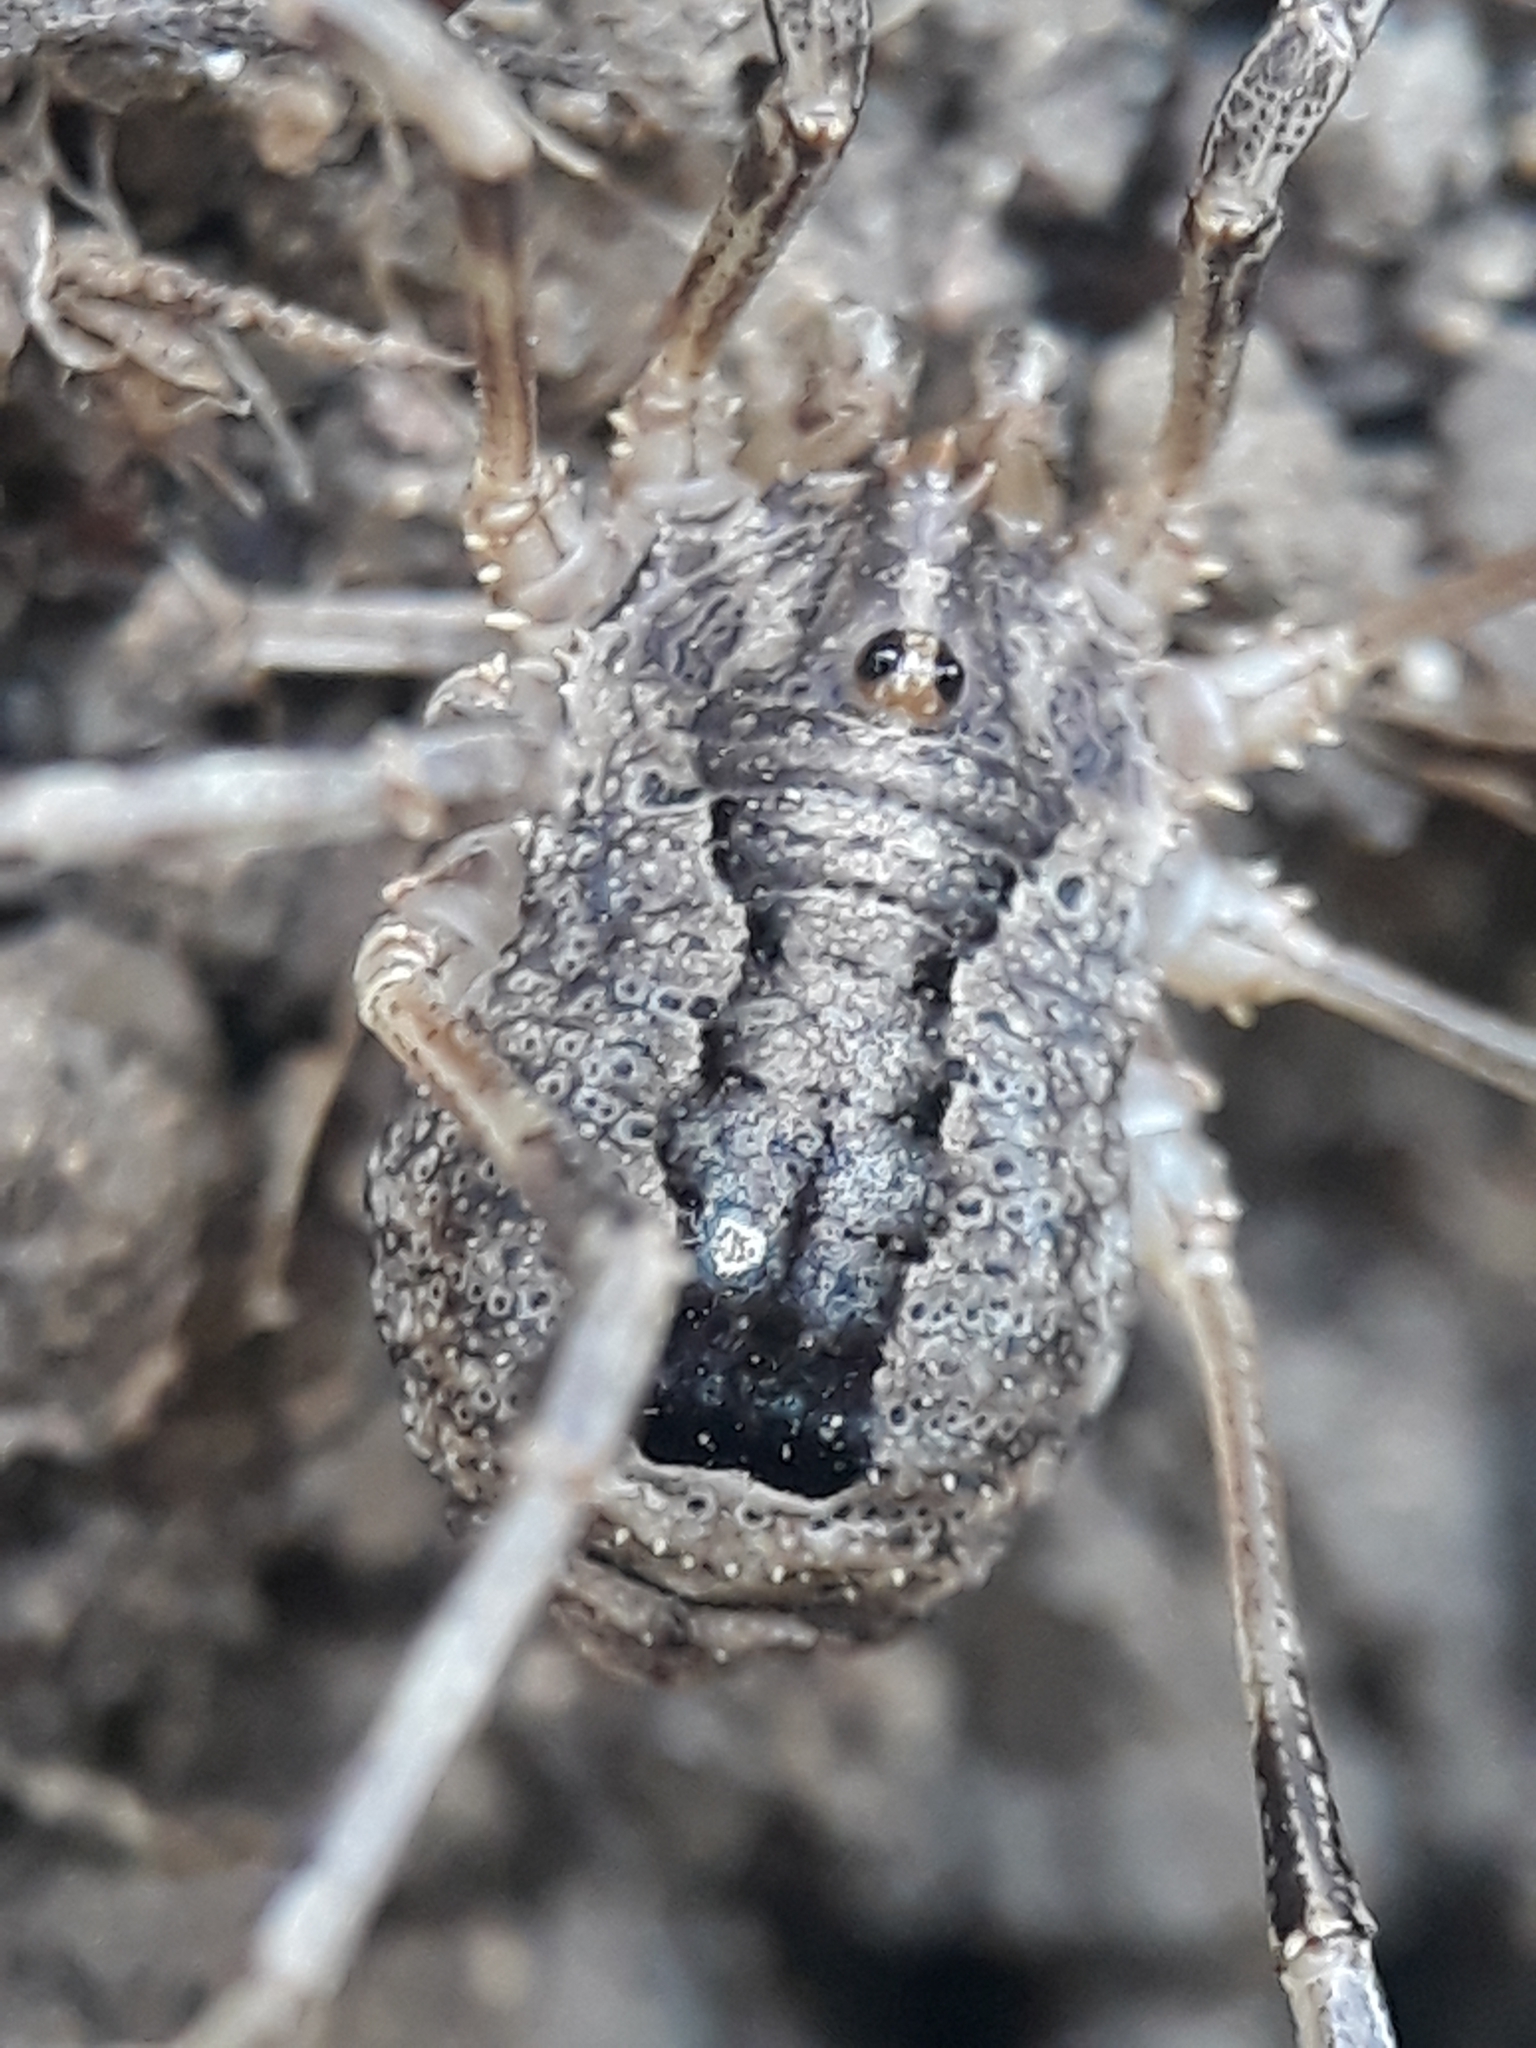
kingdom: Animalia
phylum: Arthropoda
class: Arachnida
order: Opiliones
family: Phalangiidae
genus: Odiellus
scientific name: Odiellus spinosus
